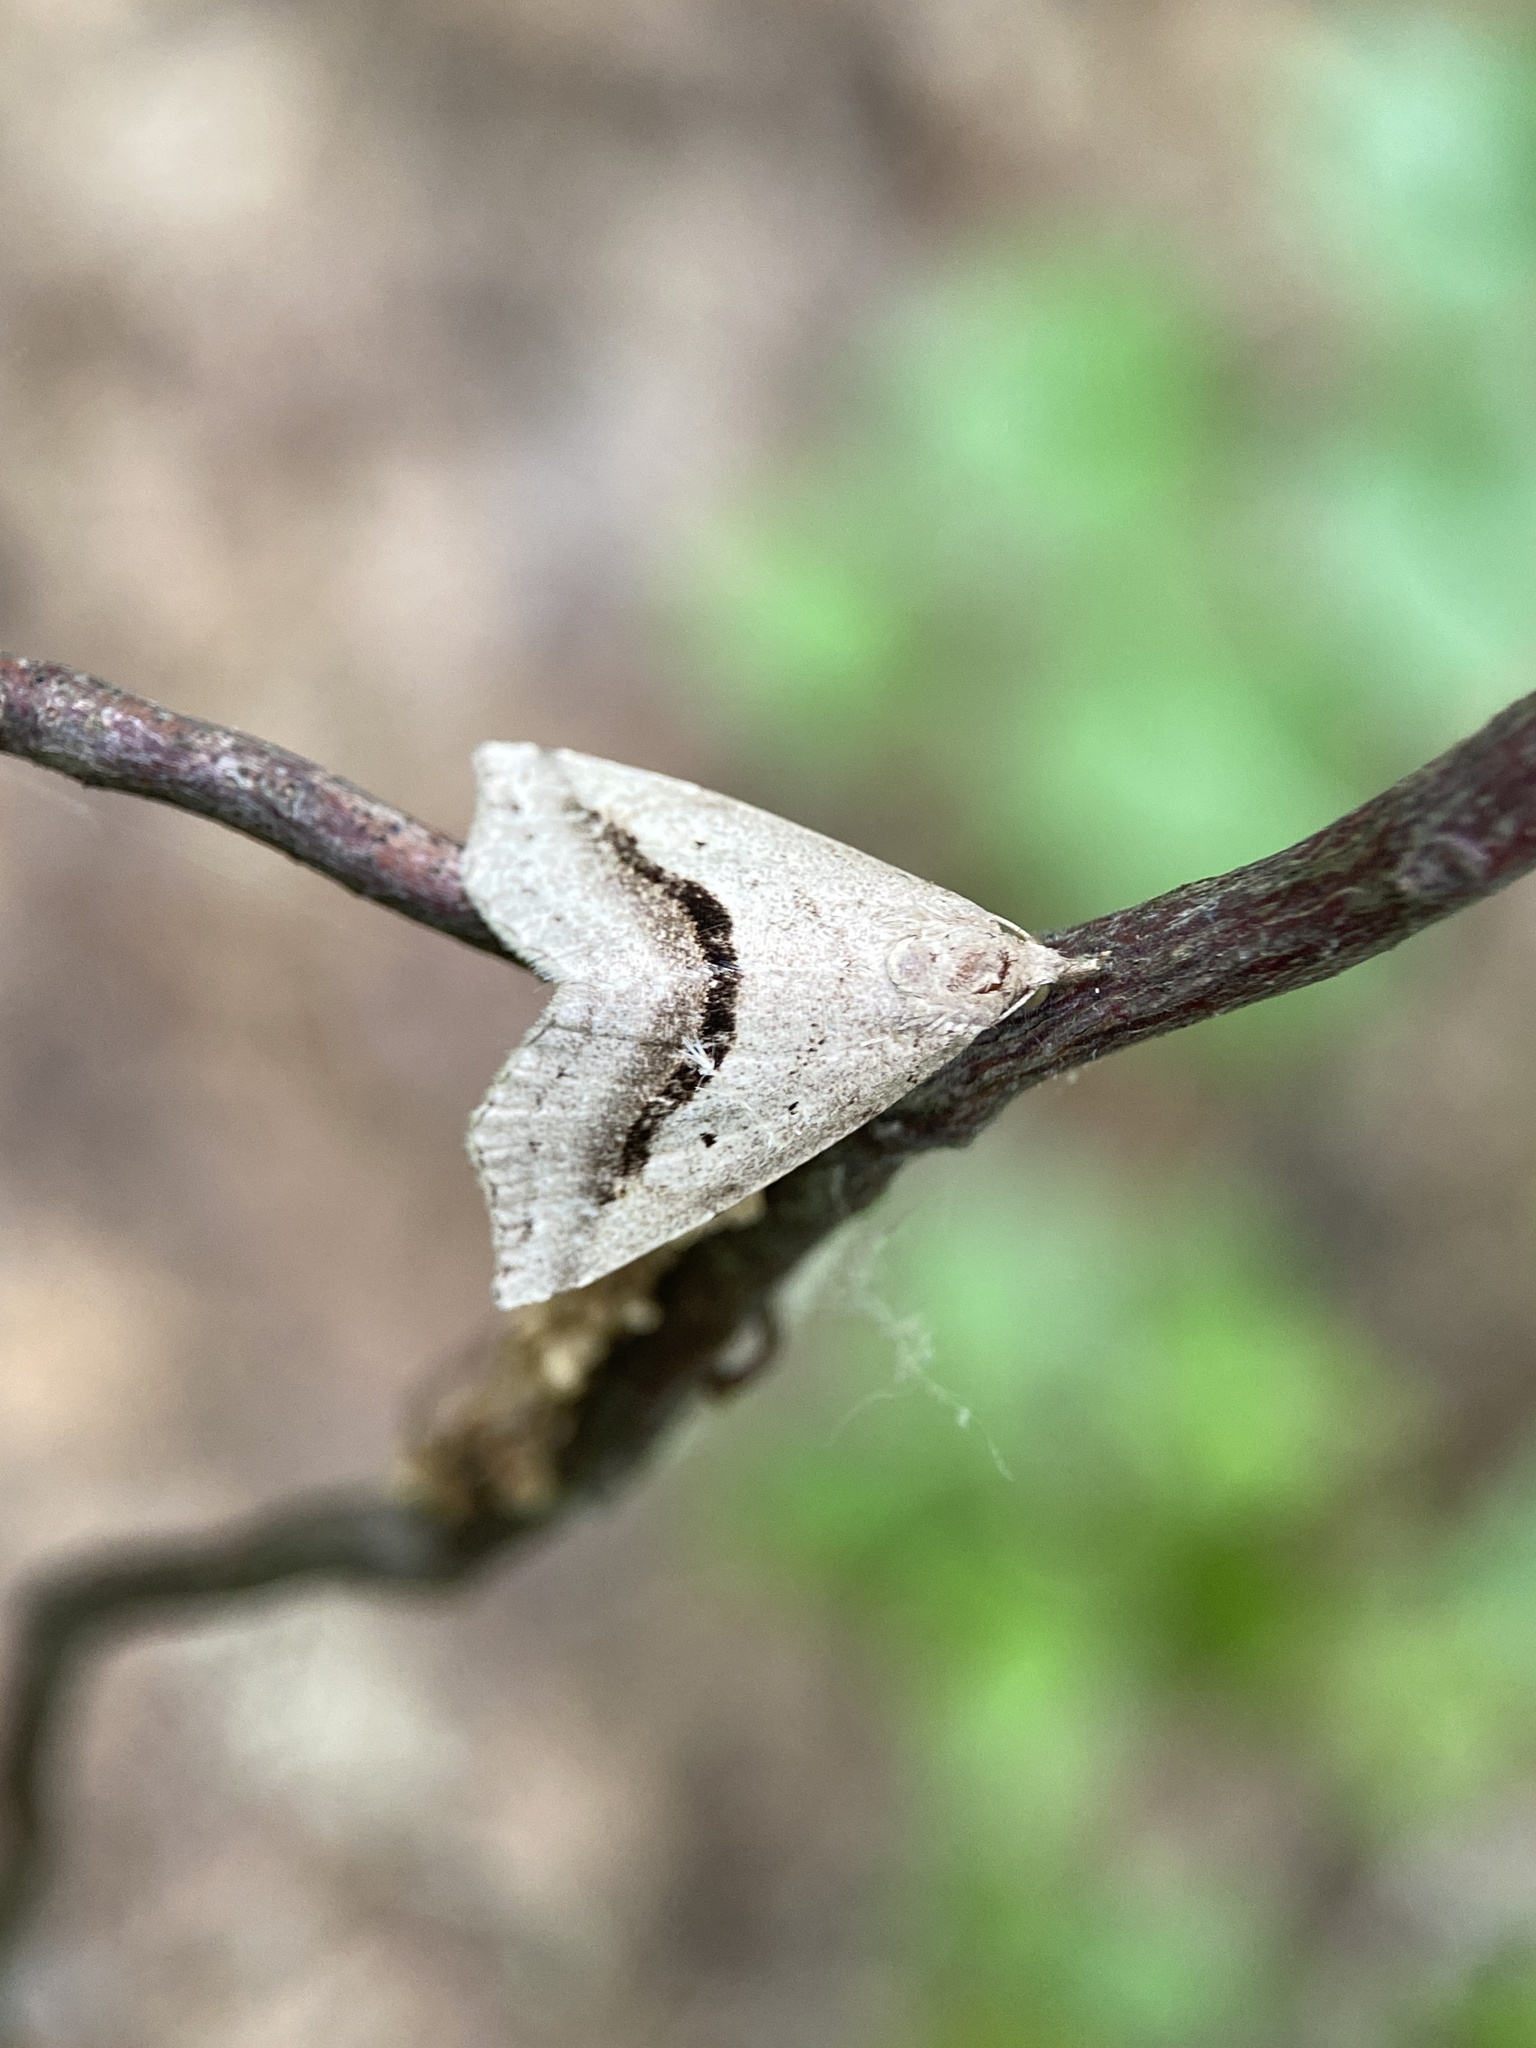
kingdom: Animalia
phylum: Arthropoda
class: Insecta
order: Lepidoptera
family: Erebidae
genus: Spargaloma
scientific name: Spargaloma perditalis
